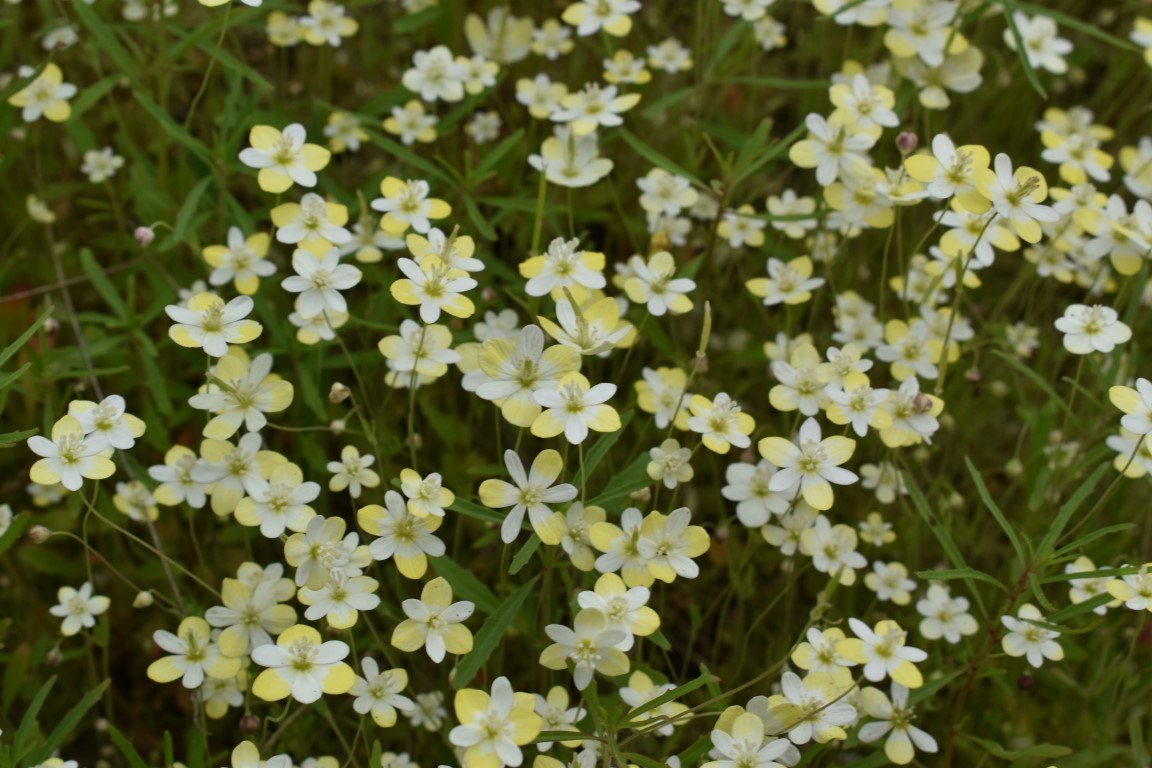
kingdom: Plantae
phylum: Tracheophyta
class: Magnoliopsida
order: Ranunculales
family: Papaveraceae
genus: Platystemon
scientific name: Platystemon californicus
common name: Cream-cups
